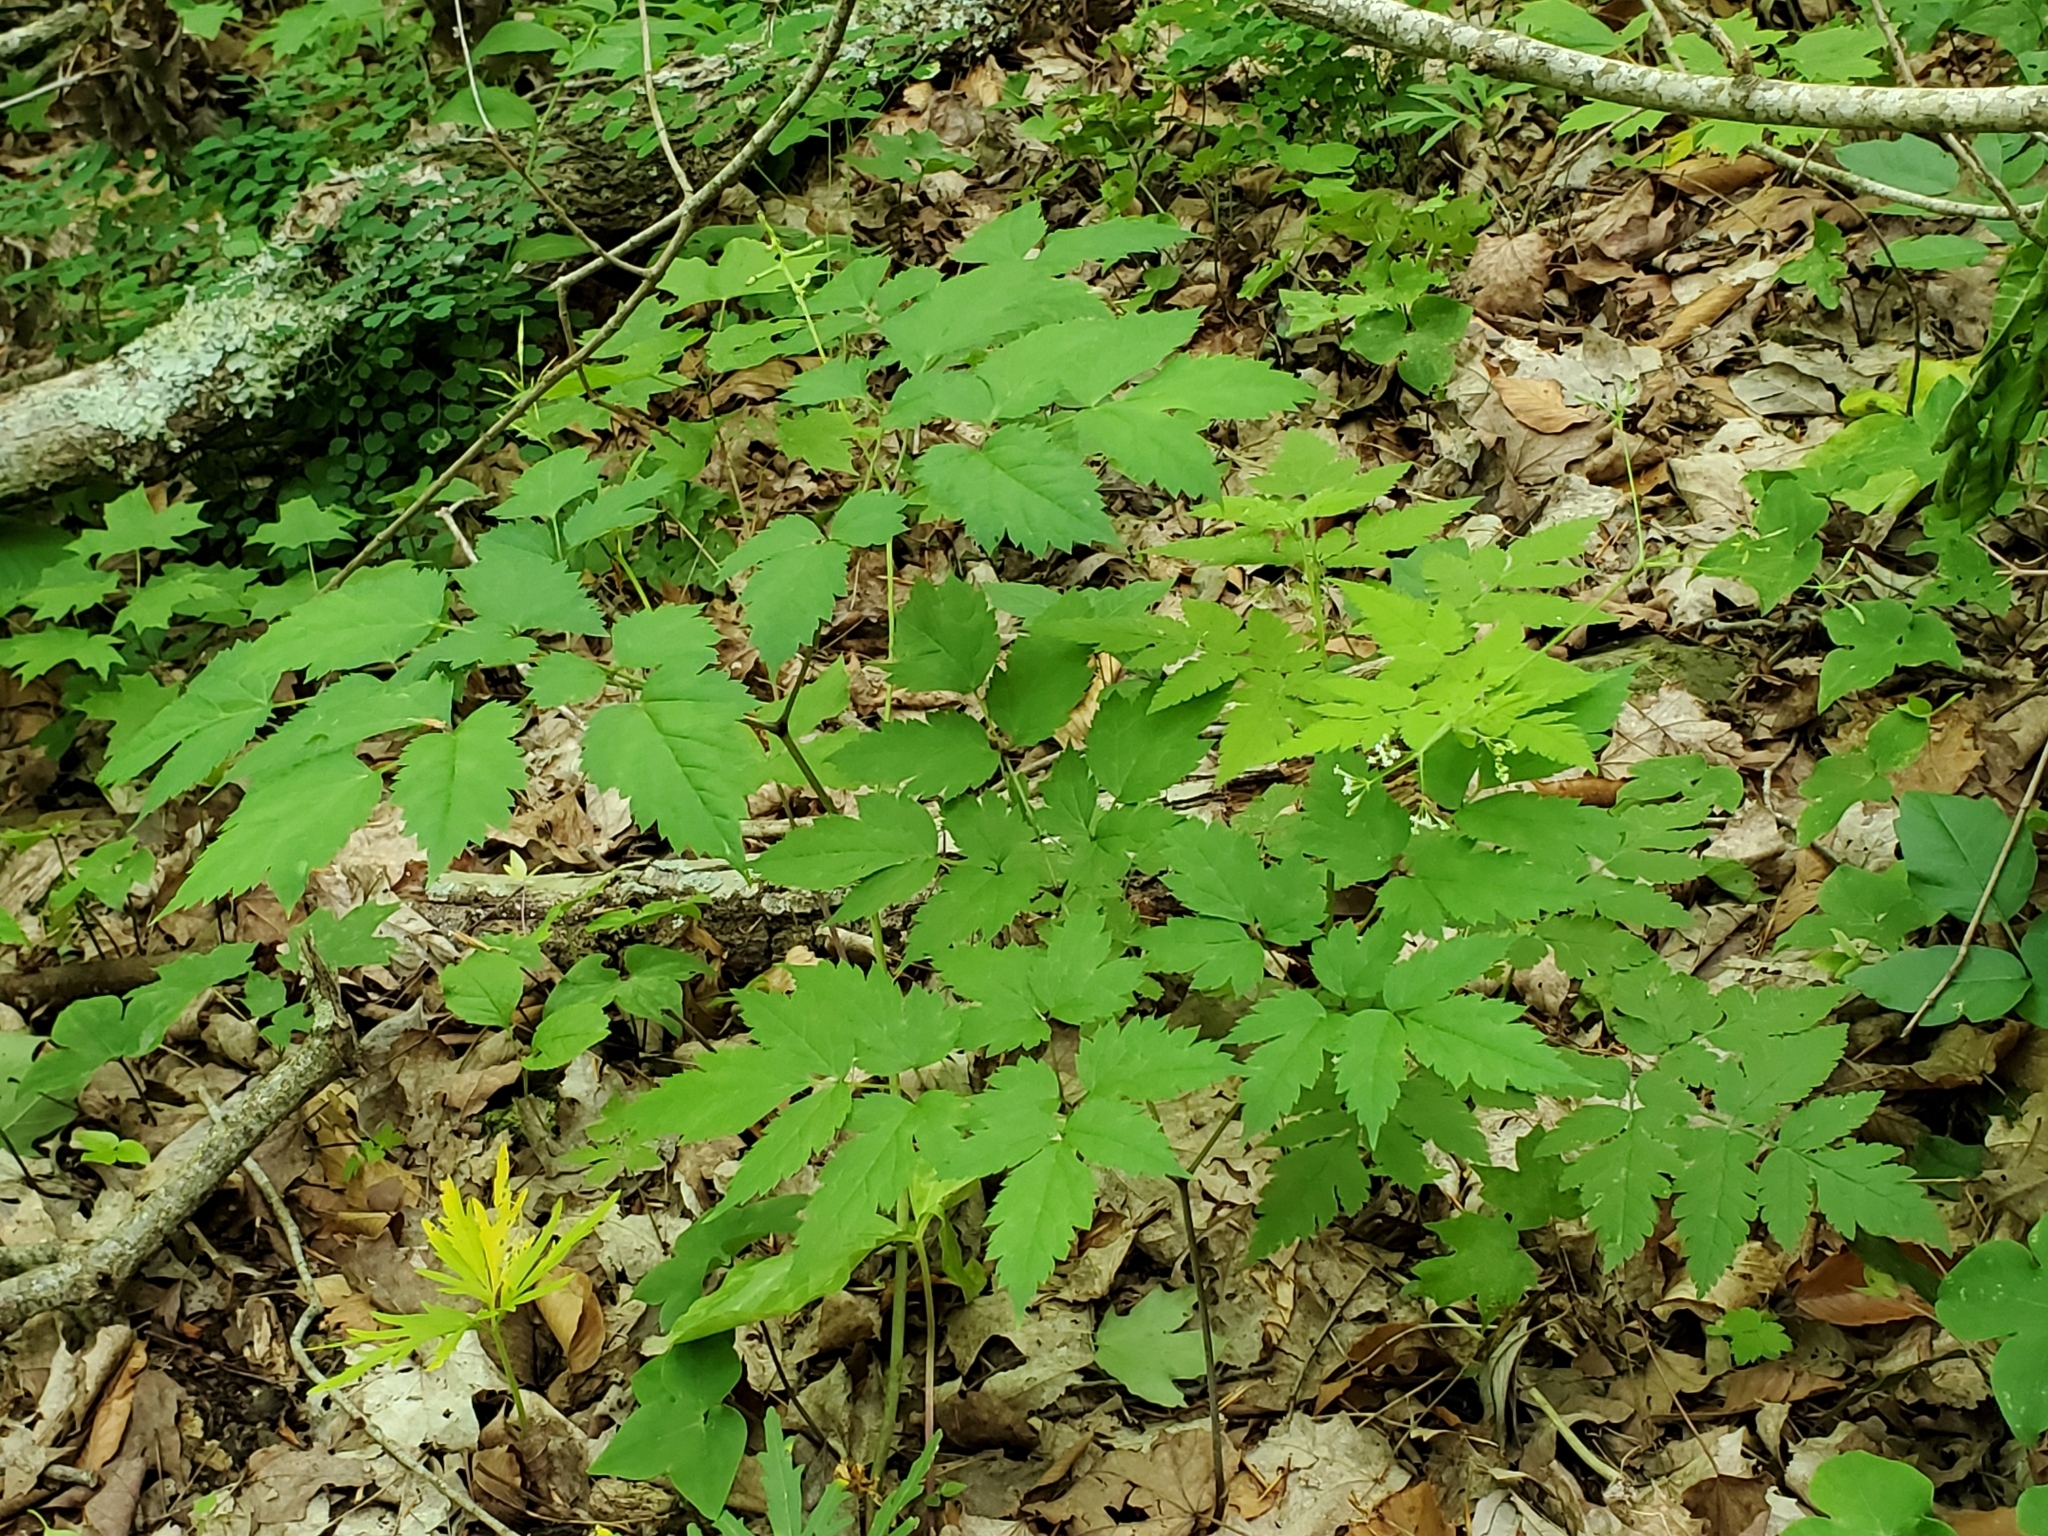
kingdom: Plantae
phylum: Tracheophyta
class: Magnoliopsida
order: Ranunculales
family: Ranunculaceae
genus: Actaea
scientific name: Actaea pachypoda
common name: Doll's-eyes
